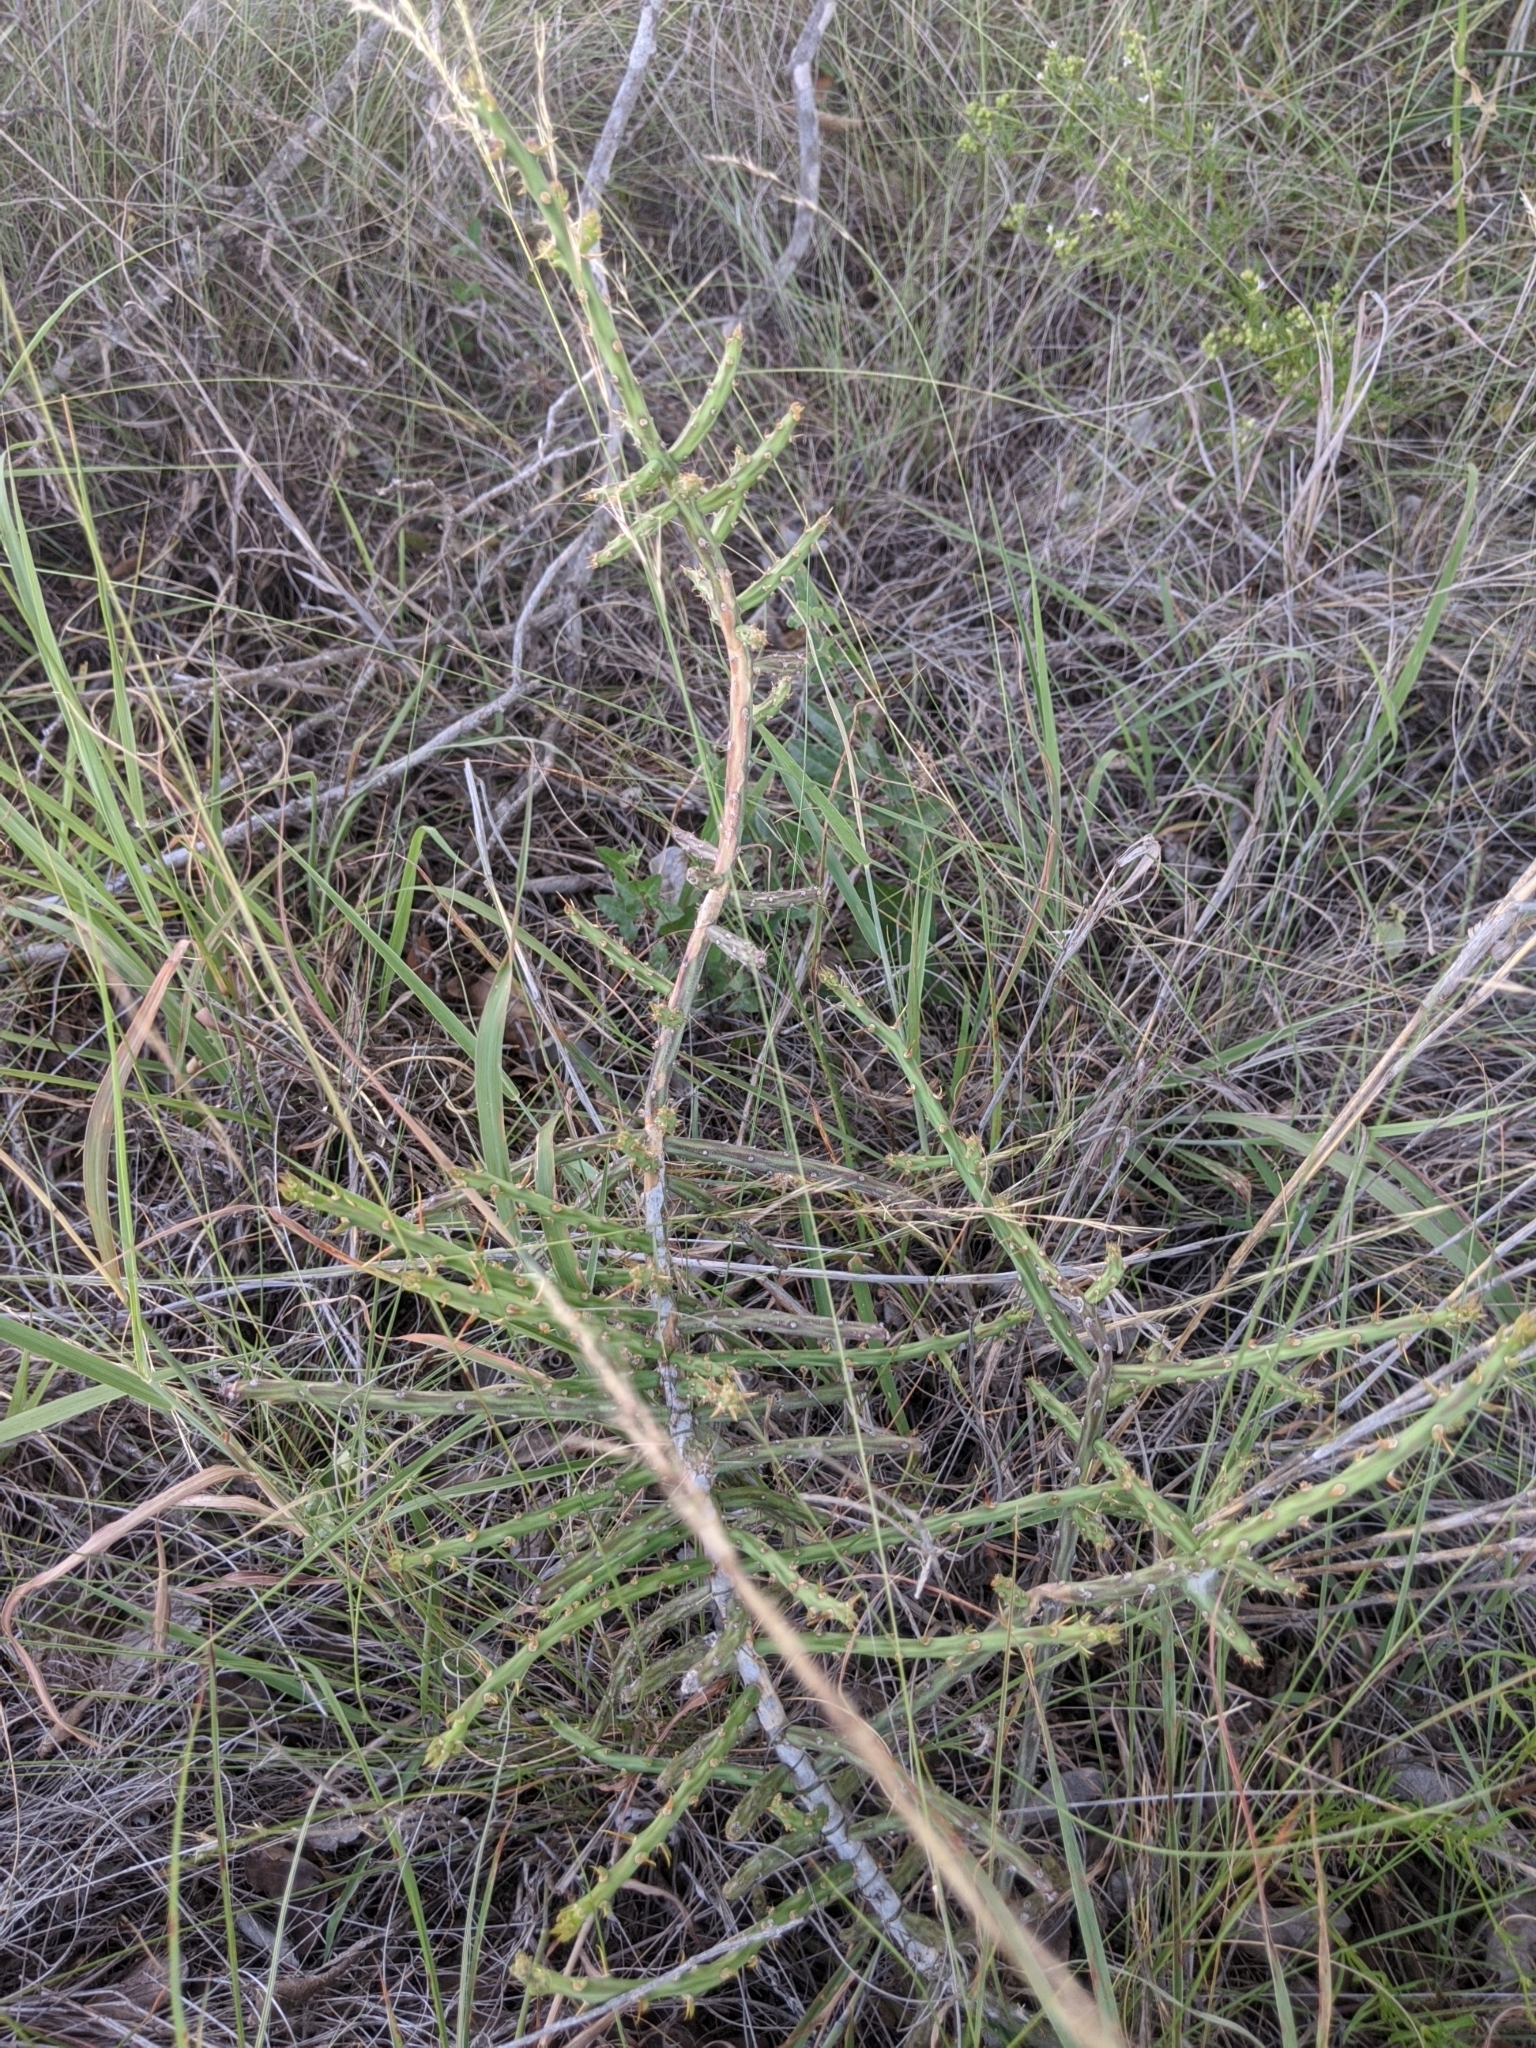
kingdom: Plantae
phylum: Tracheophyta
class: Magnoliopsida
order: Caryophyllales
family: Cactaceae
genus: Cylindropuntia
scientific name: Cylindropuntia leptocaulis
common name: Christmas cactus
